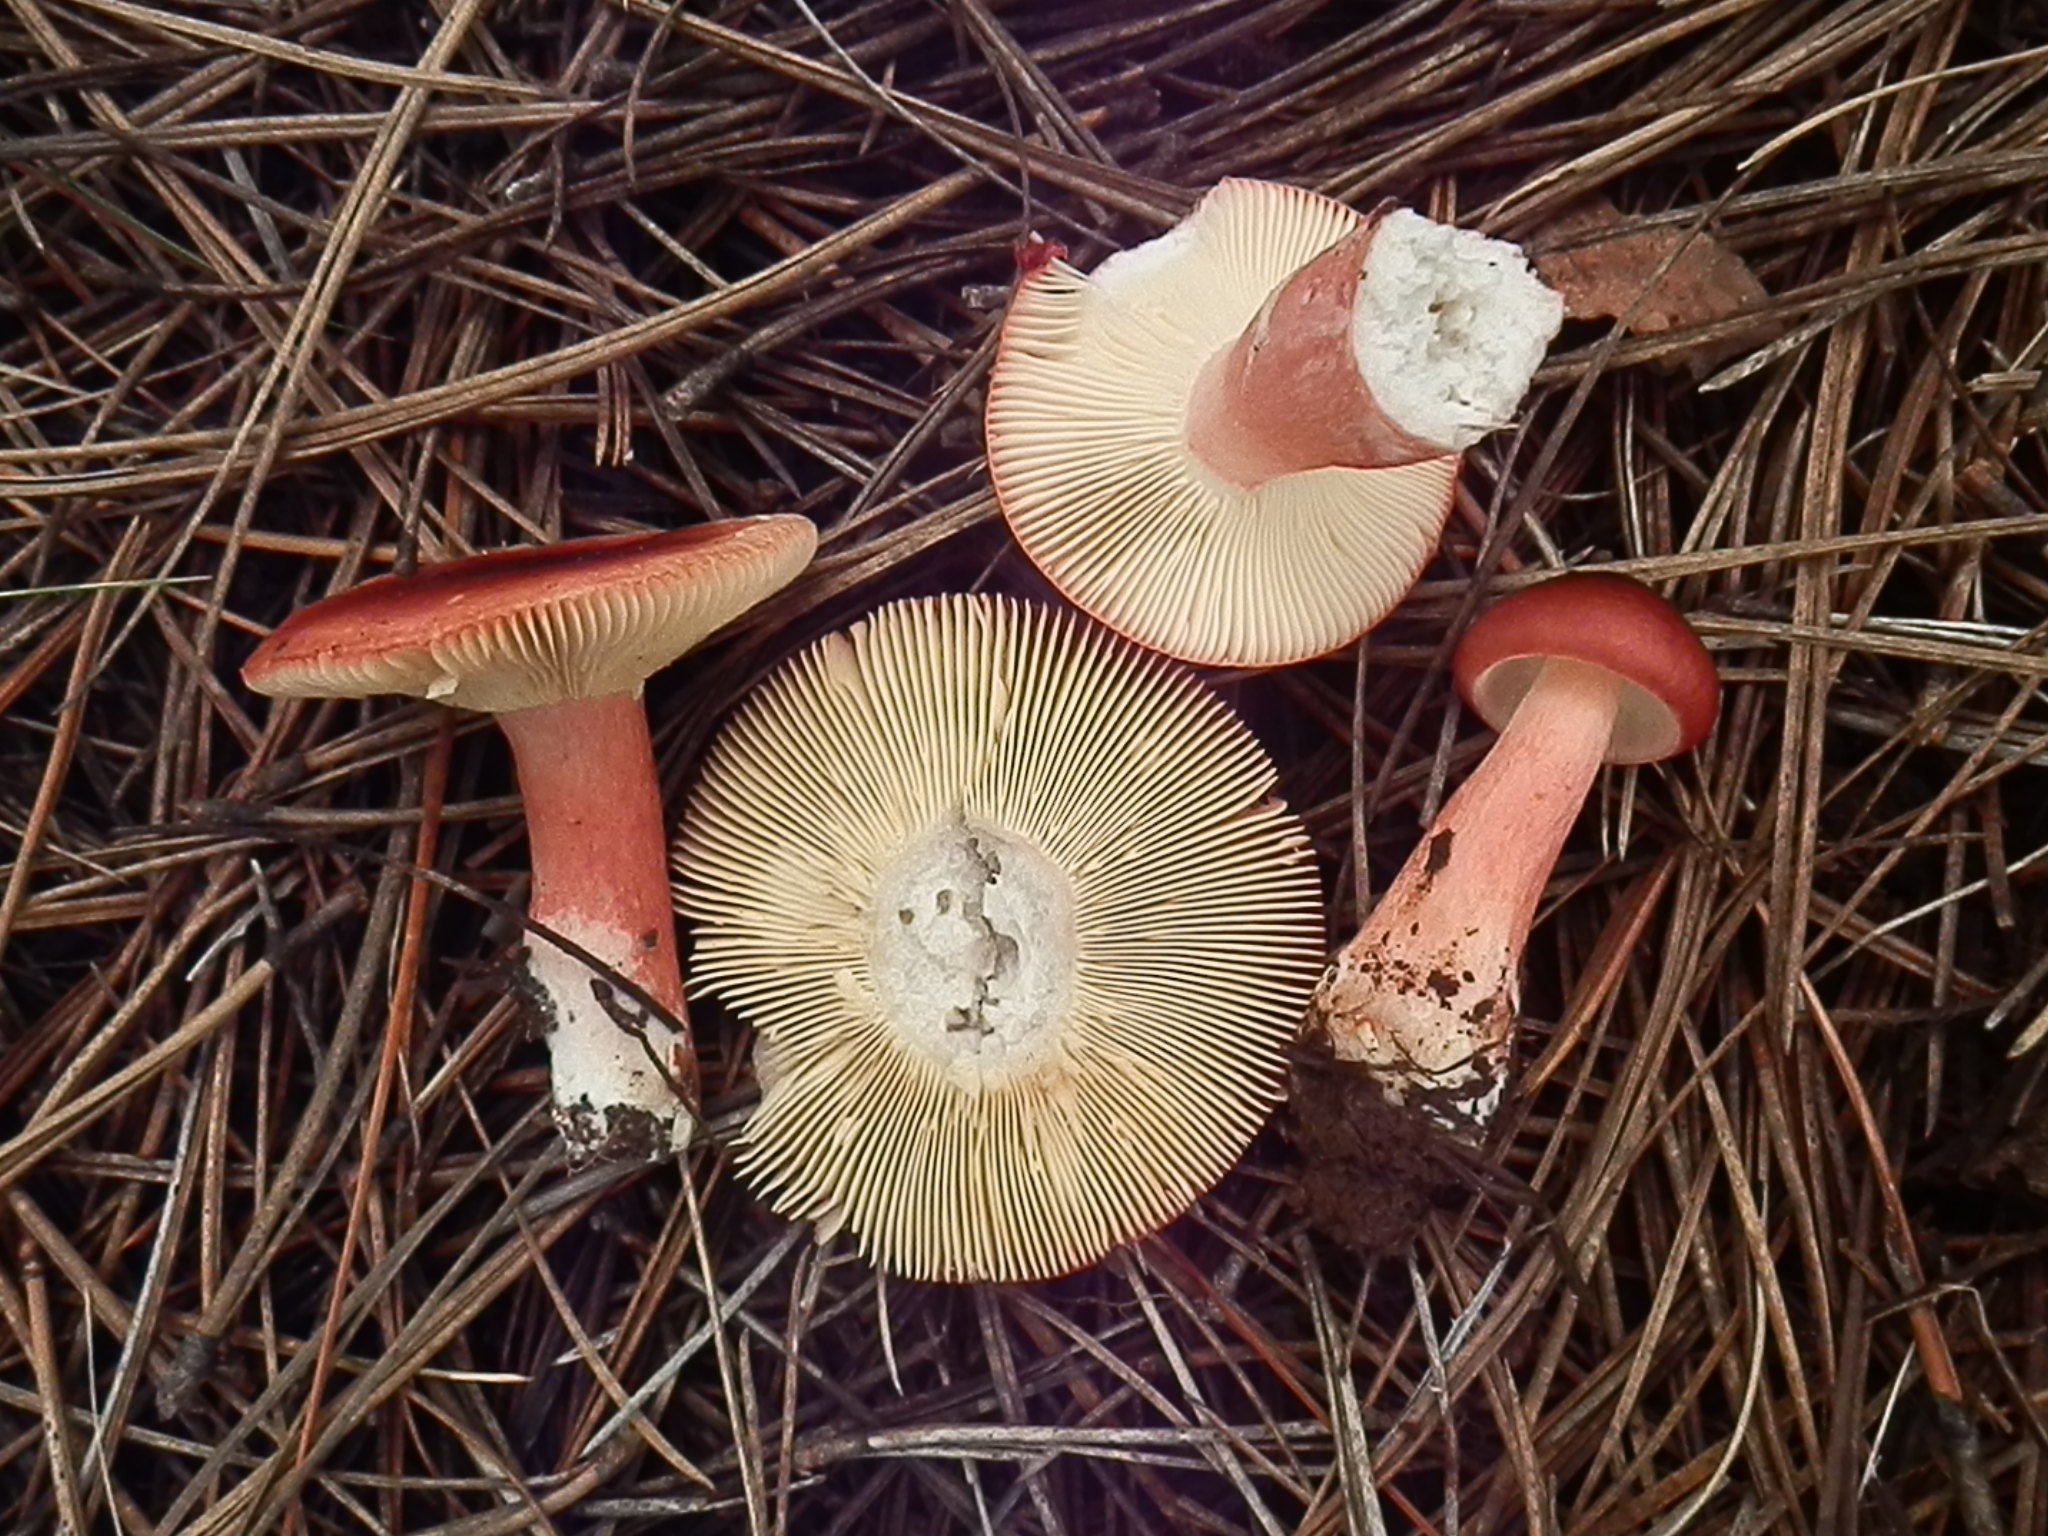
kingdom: Fungi
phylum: Basidiomycota
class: Agaricomycetes
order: Russulales
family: Russulaceae
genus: Russula
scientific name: Russula queletii
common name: Fruity brittlegill
